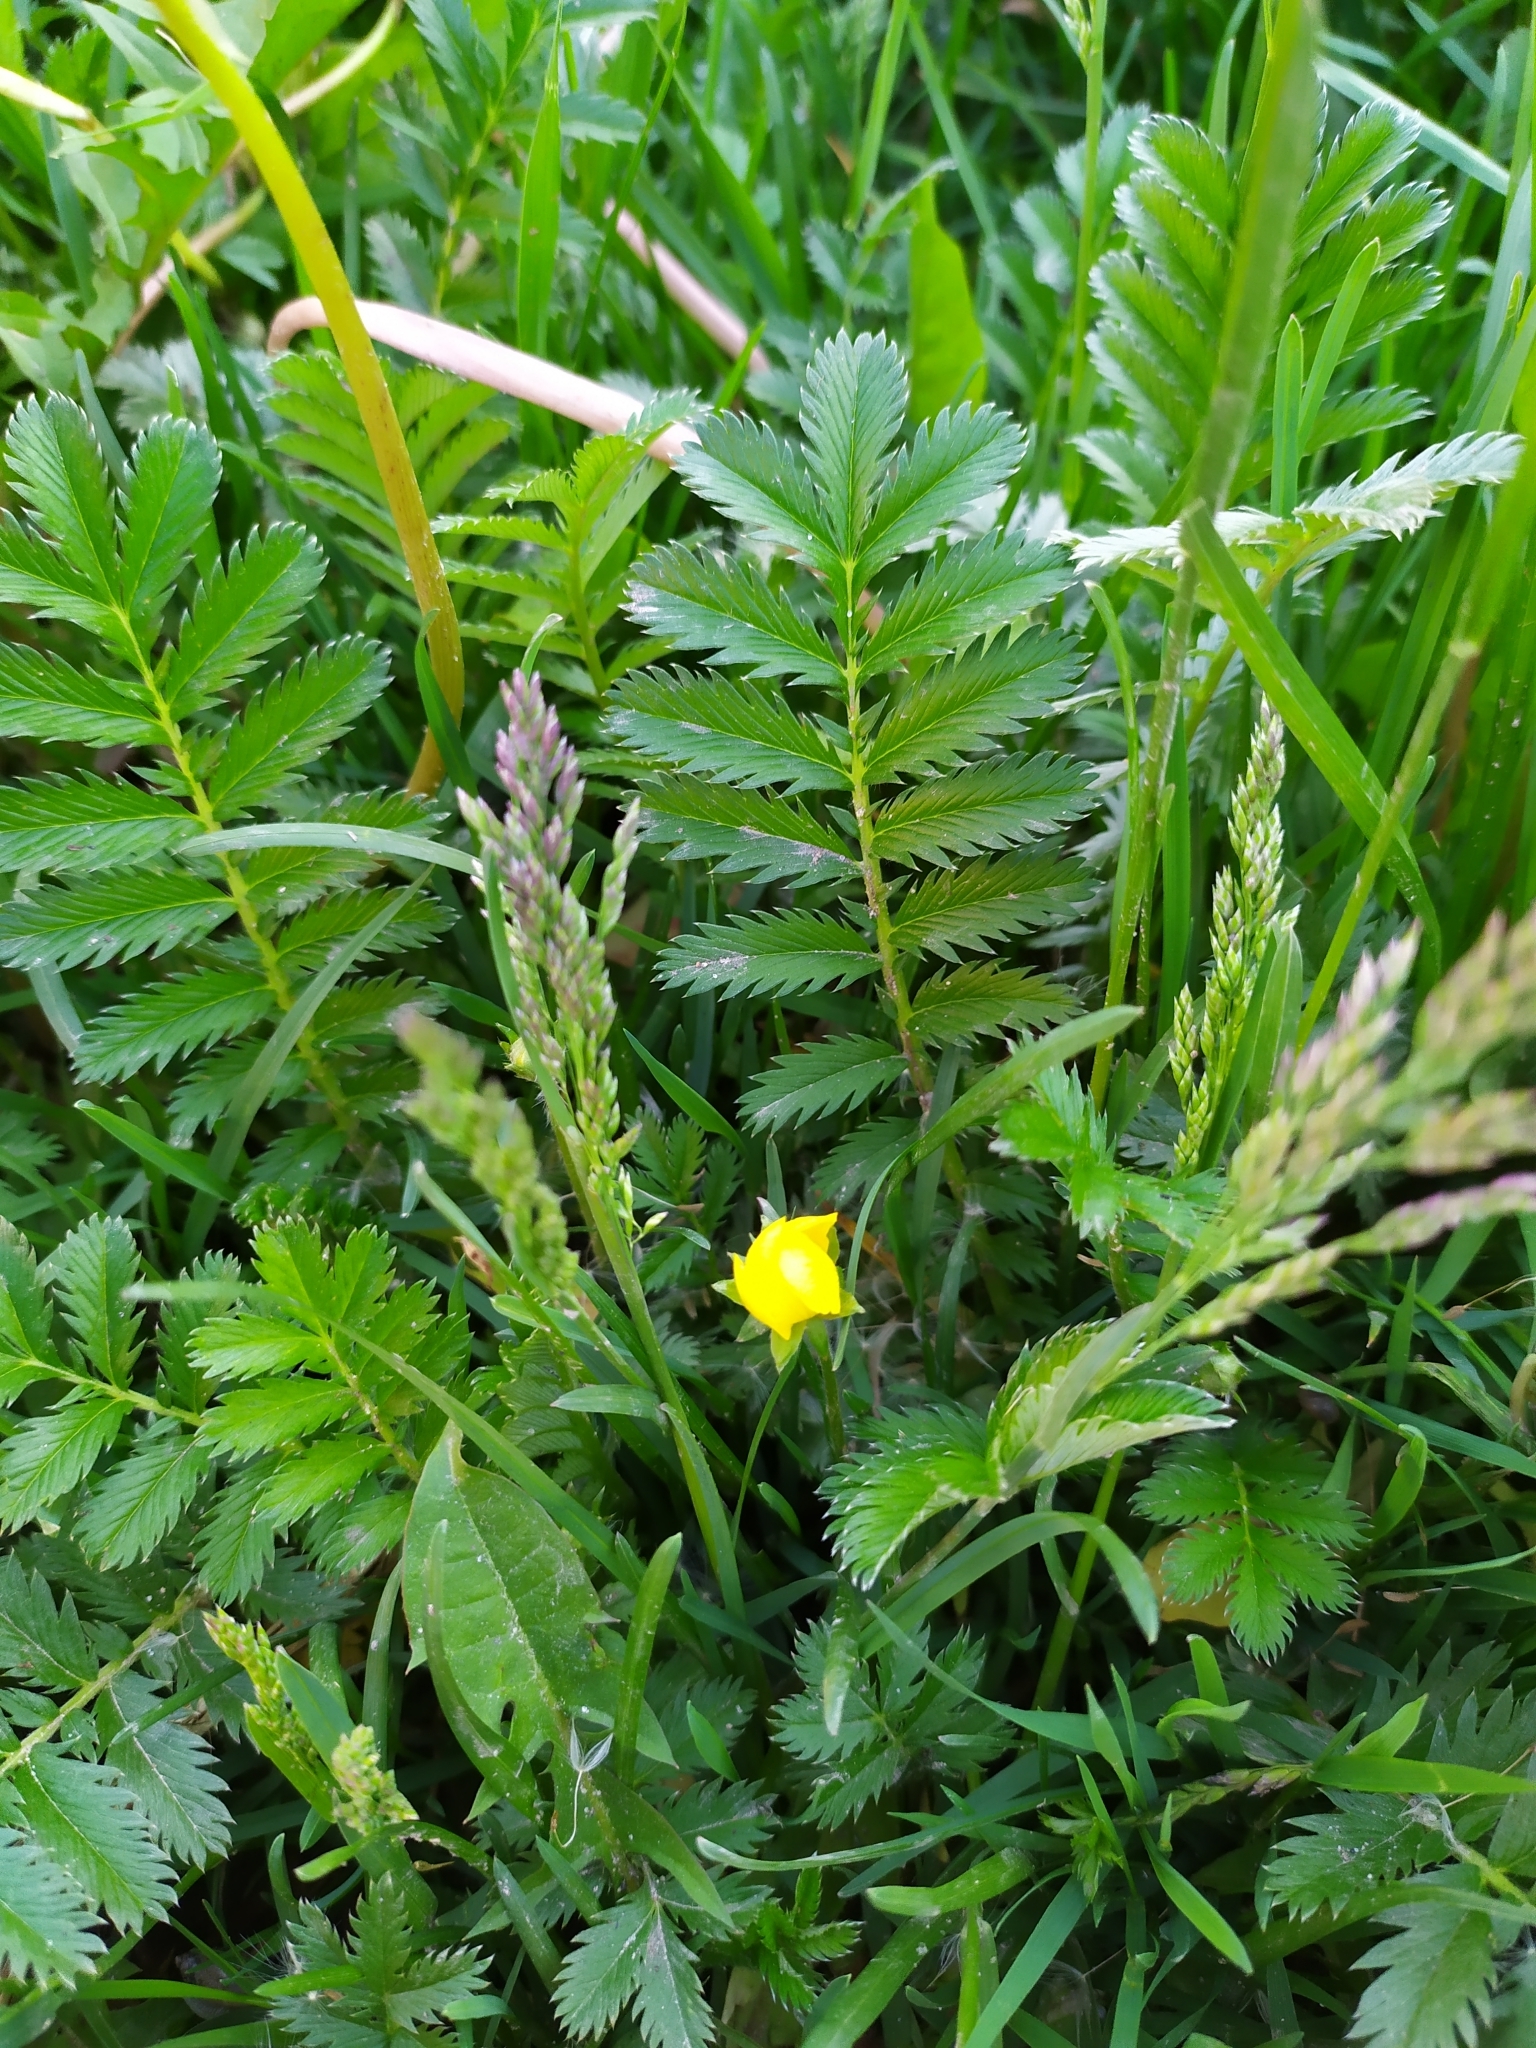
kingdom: Plantae
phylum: Tracheophyta
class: Magnoliopsida
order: Rosales
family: Rosaceae
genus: Argentina
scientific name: Argentina anserina
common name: Common silverweed
